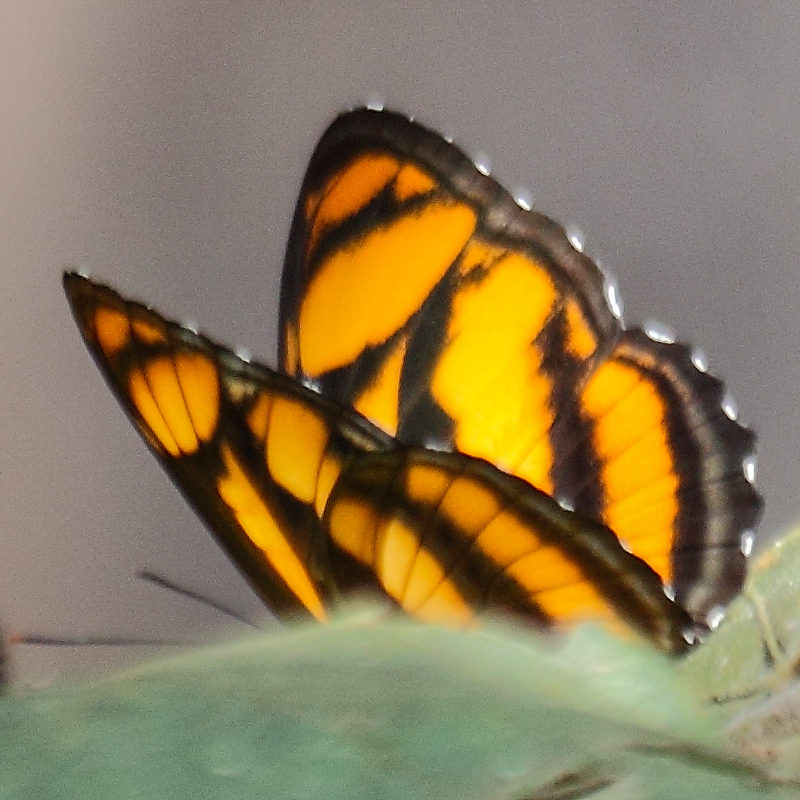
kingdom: Animalia
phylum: Arthropoda
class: Insecta
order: Lepidoptera
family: Nymphalidae
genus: Parathyma
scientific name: Parathyma nefte
